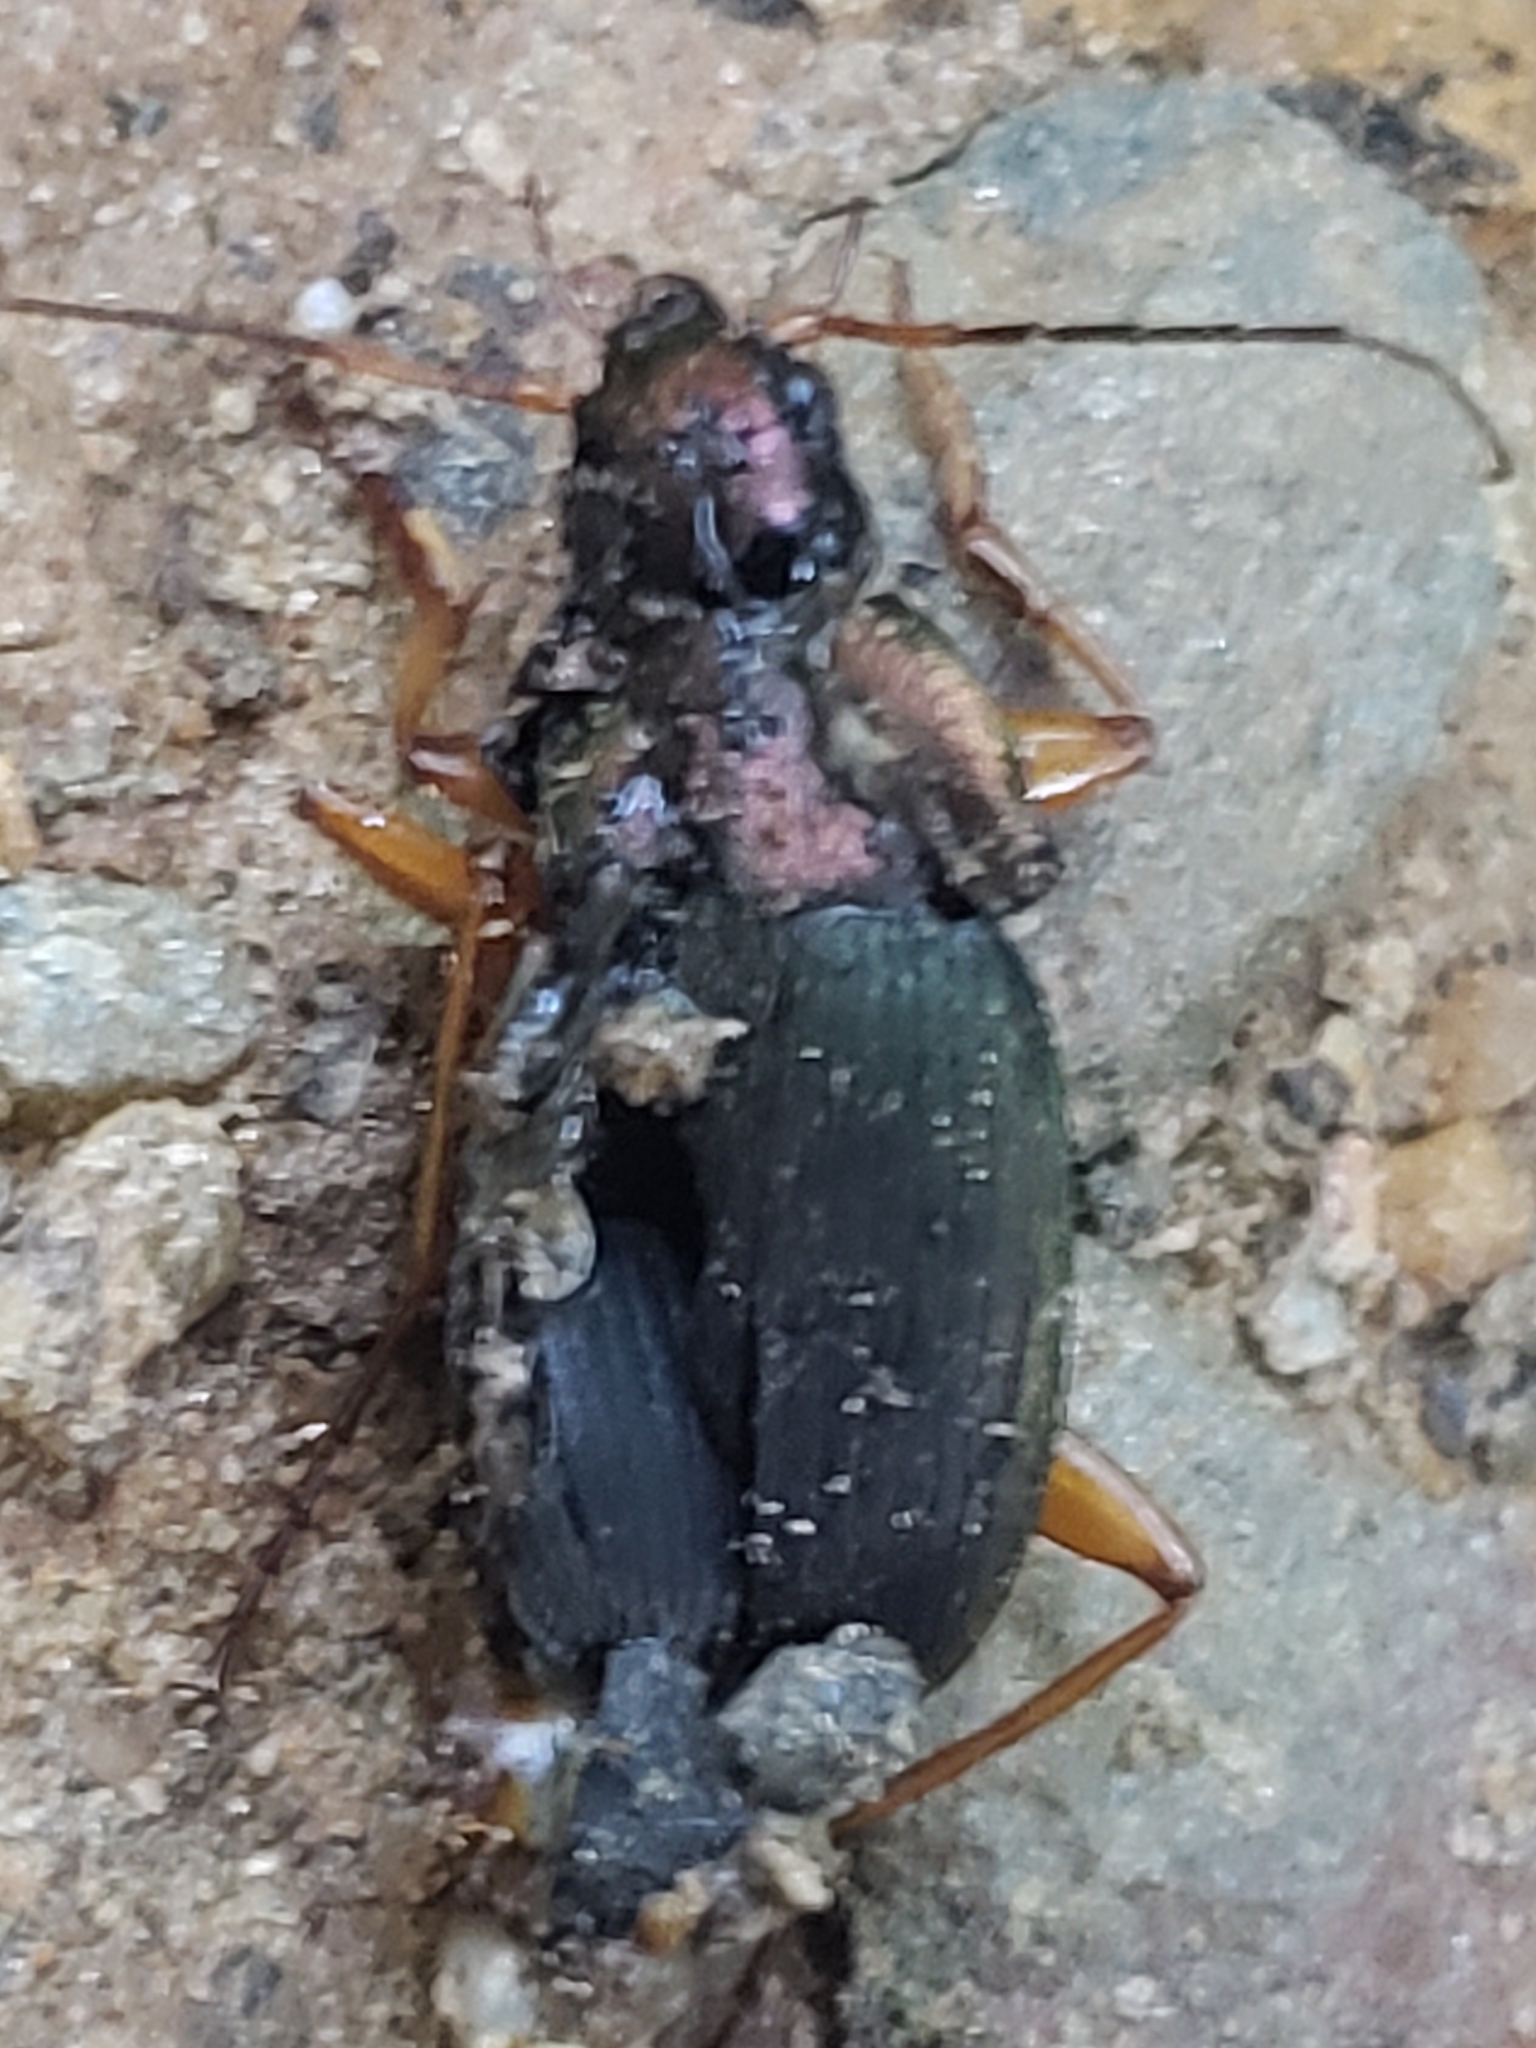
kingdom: Animalia
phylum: Arthropoda
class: Insecta
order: Coleoptera
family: Carabidae
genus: Chlaenius
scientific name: Chlaenius aestivus
